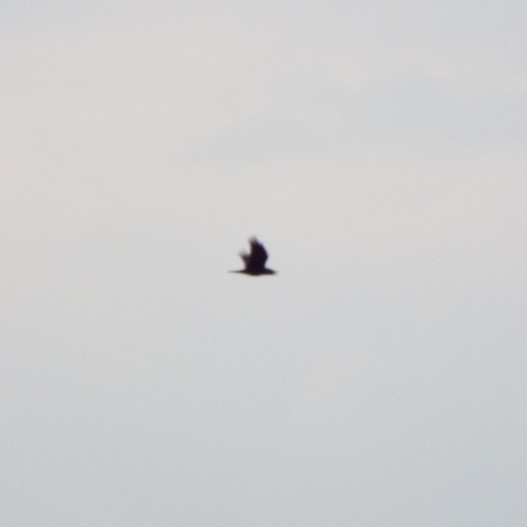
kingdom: Animalia
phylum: Chordata
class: Aves
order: Passeriformes
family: Corvidae
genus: Corvus
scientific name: Corvus corax
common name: Common raven
